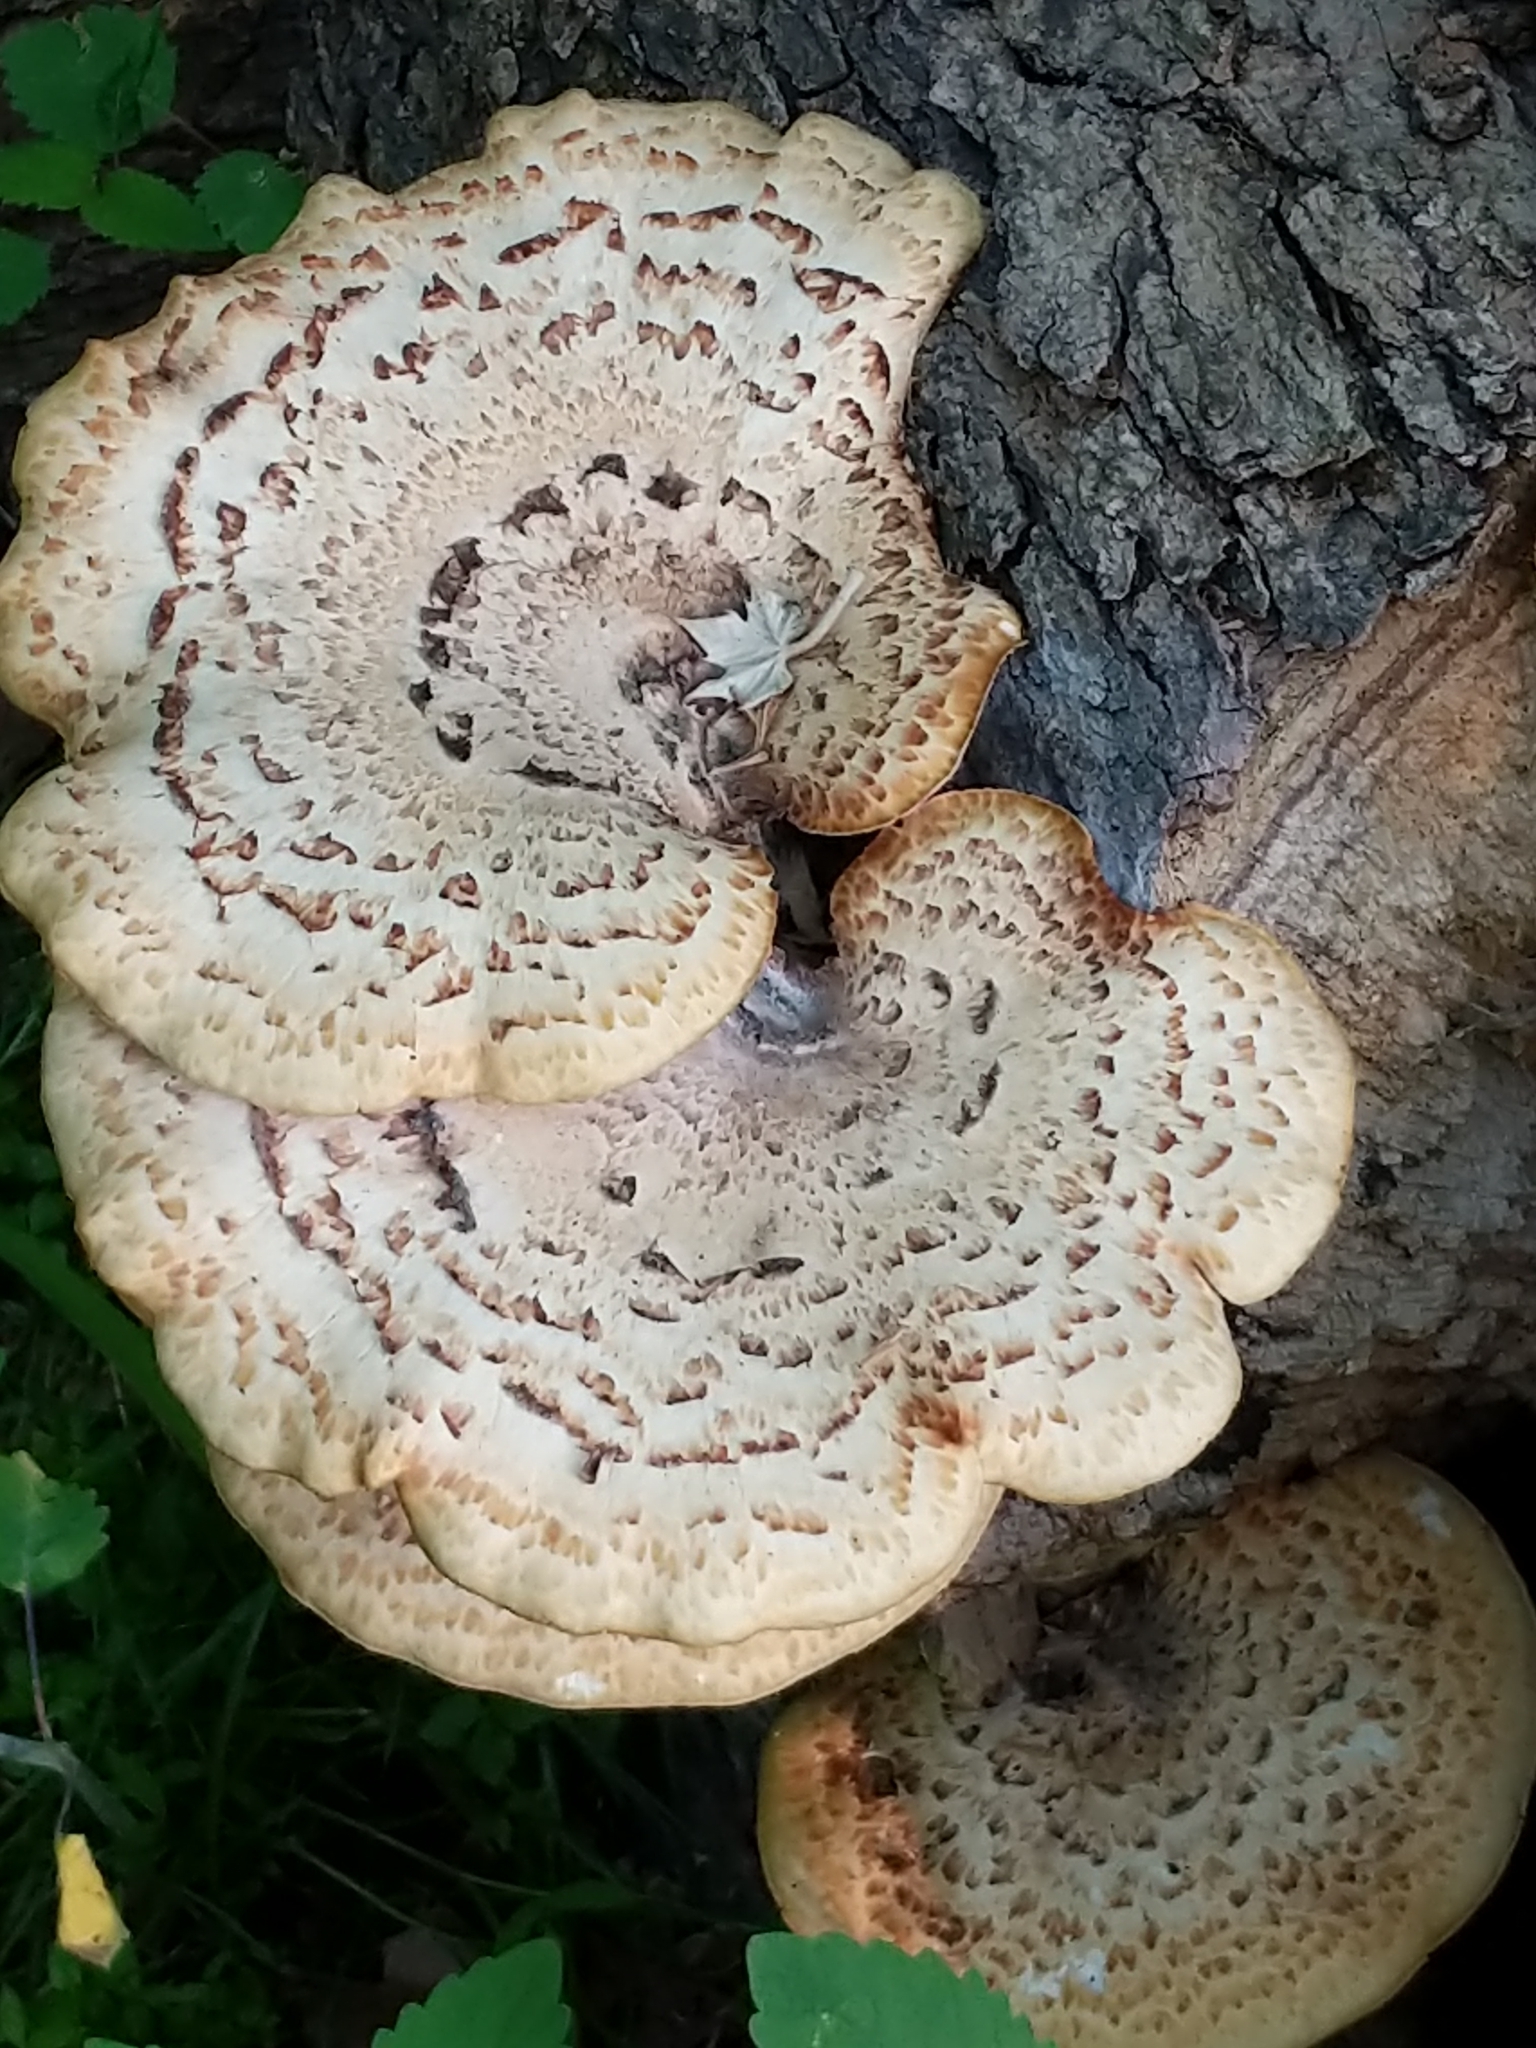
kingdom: Fungi
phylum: Basidiomycota
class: Agaricomycetes
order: Polyporales
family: Polyporaceae
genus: Cerioporus
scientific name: Cerioporus squamosus
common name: Dryad's saddle
